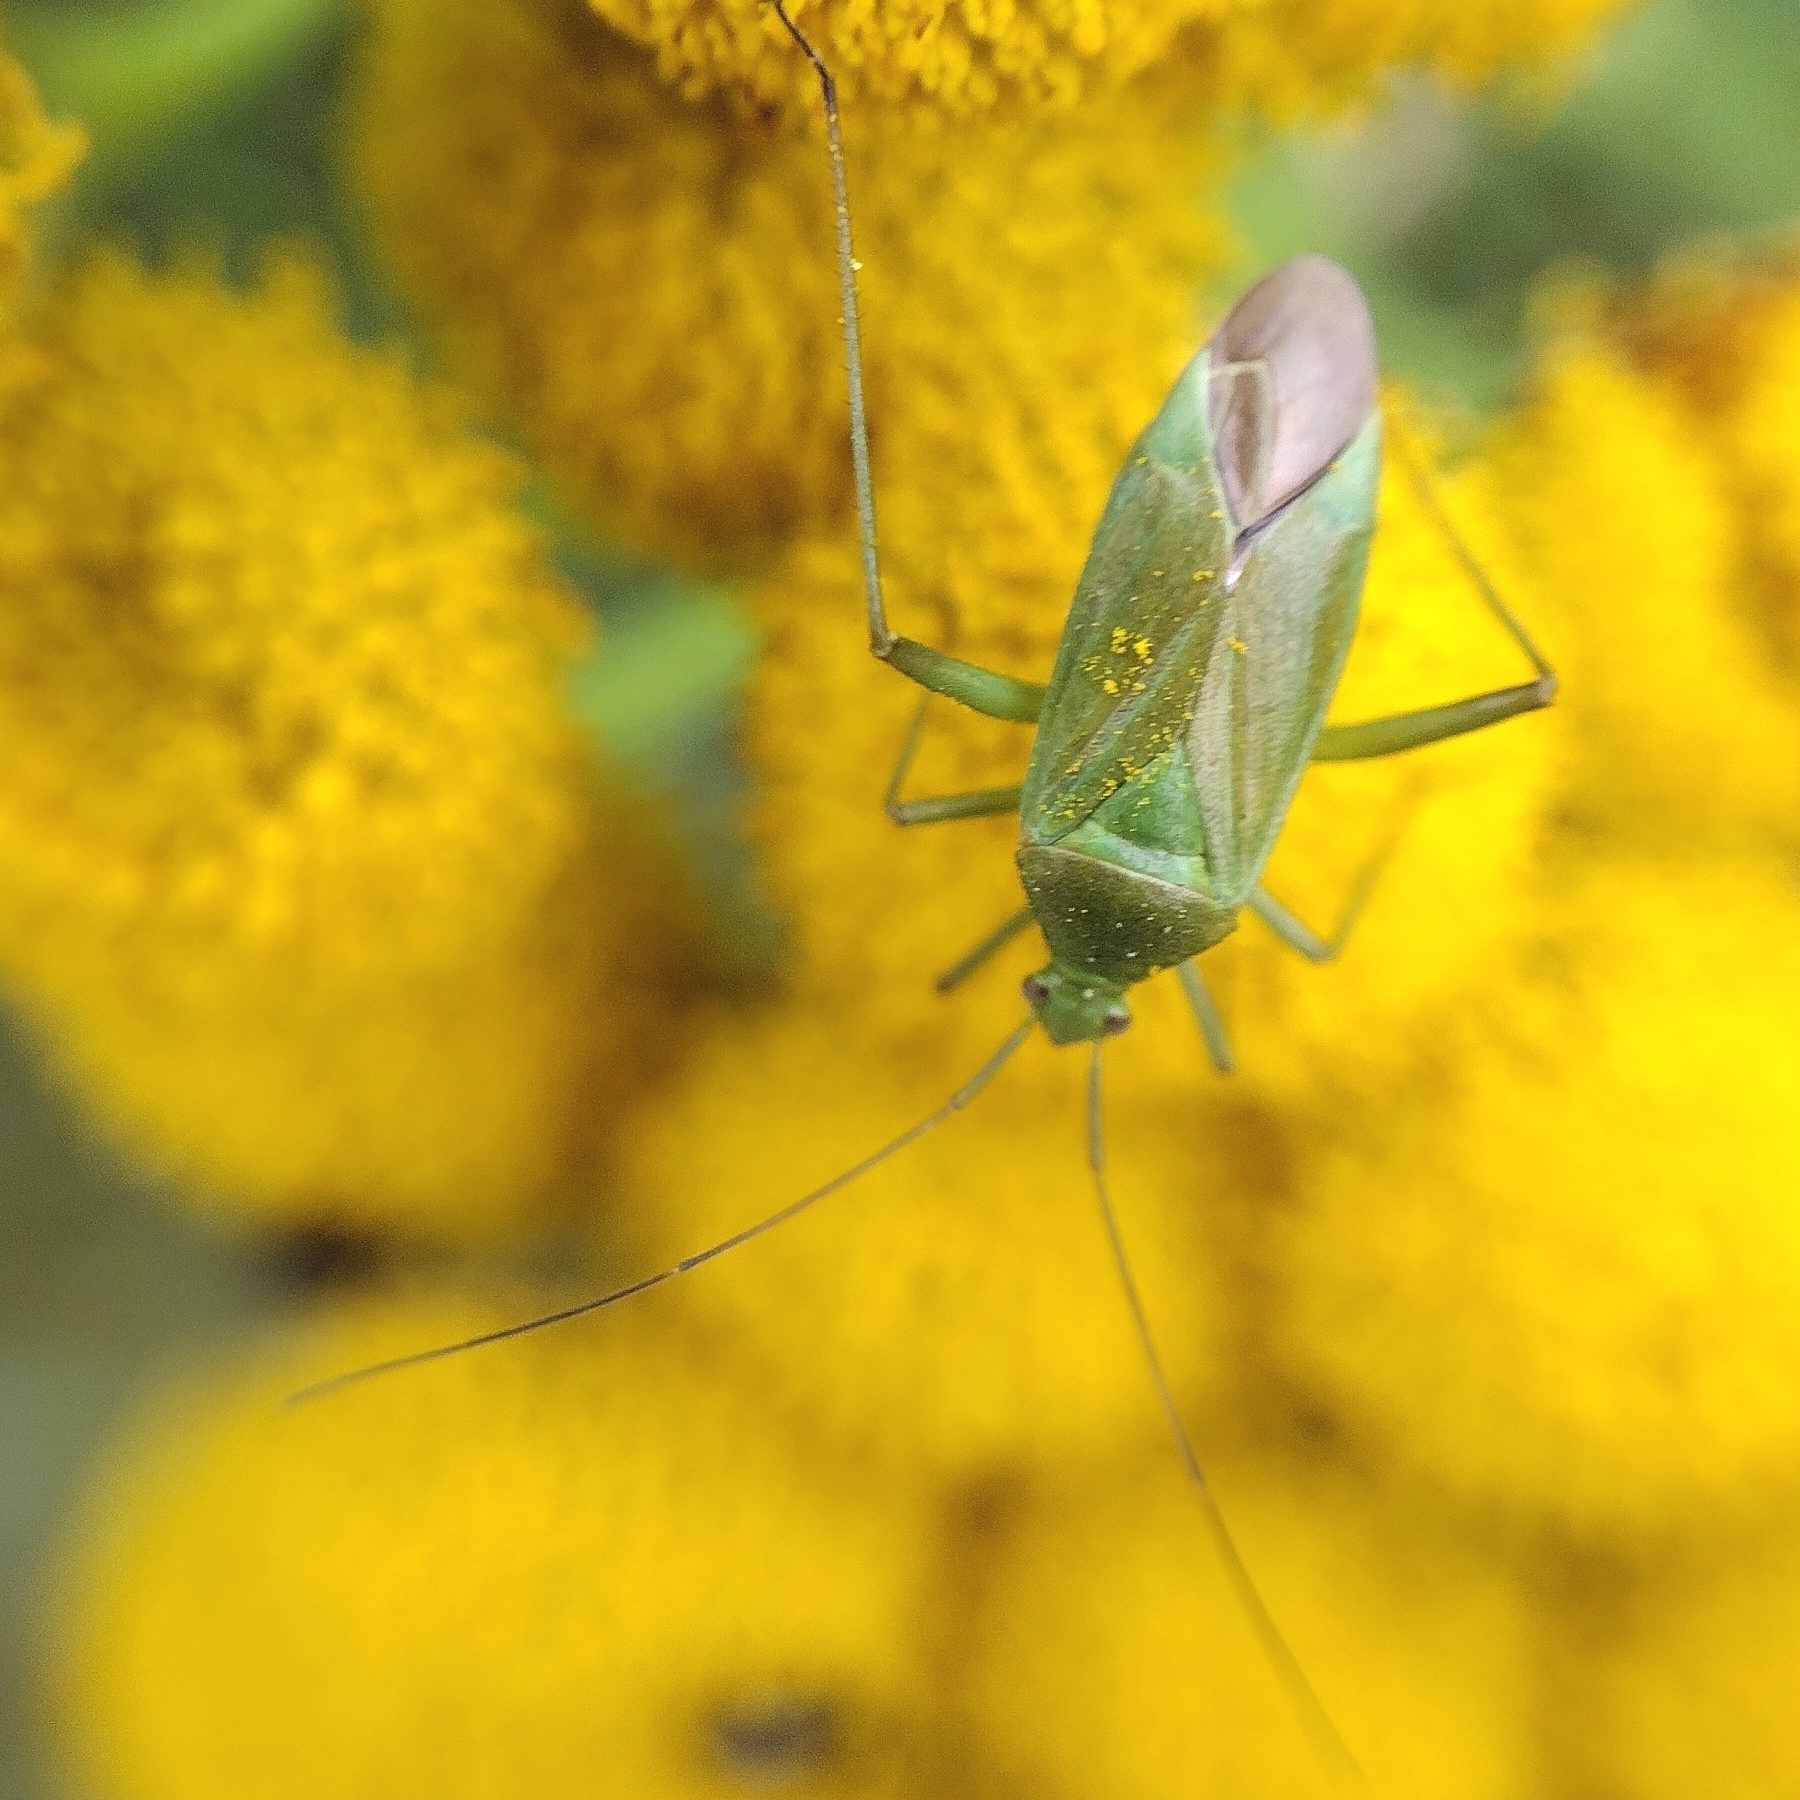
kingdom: Animalia
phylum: Arthropoda
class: Insecta
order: Hemiptera
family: Miridae
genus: Calocoris
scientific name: Calocoris affinis
